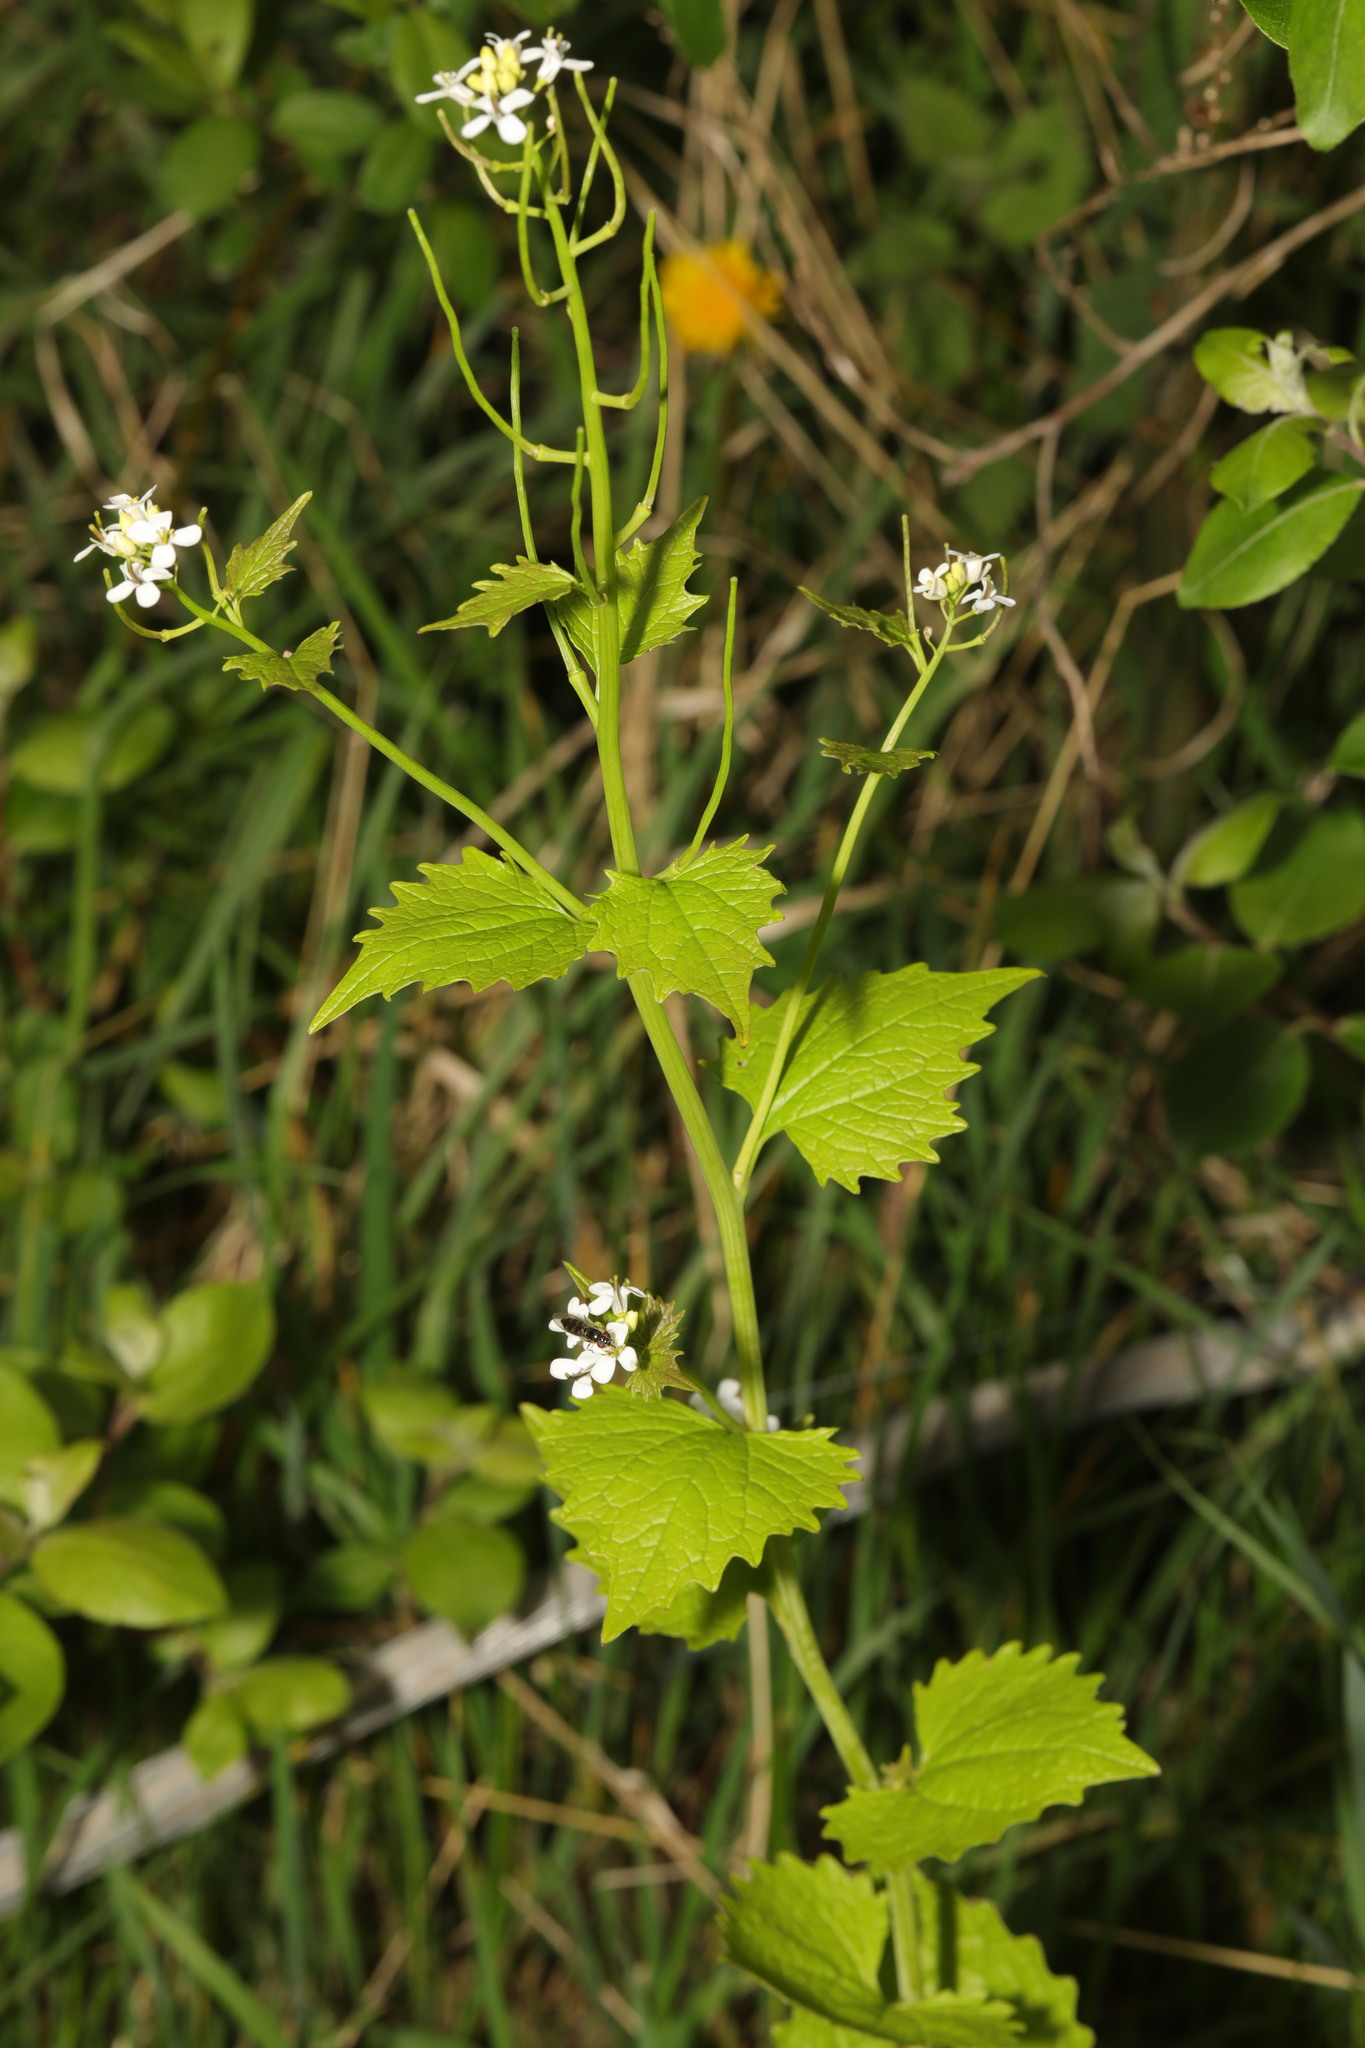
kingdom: Plantae
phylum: Tracheophyta
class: Magnoliopsida
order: Brassicales
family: Brassicaceae
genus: Alliaria
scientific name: Alliaria petiolata
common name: Garlic mustard
